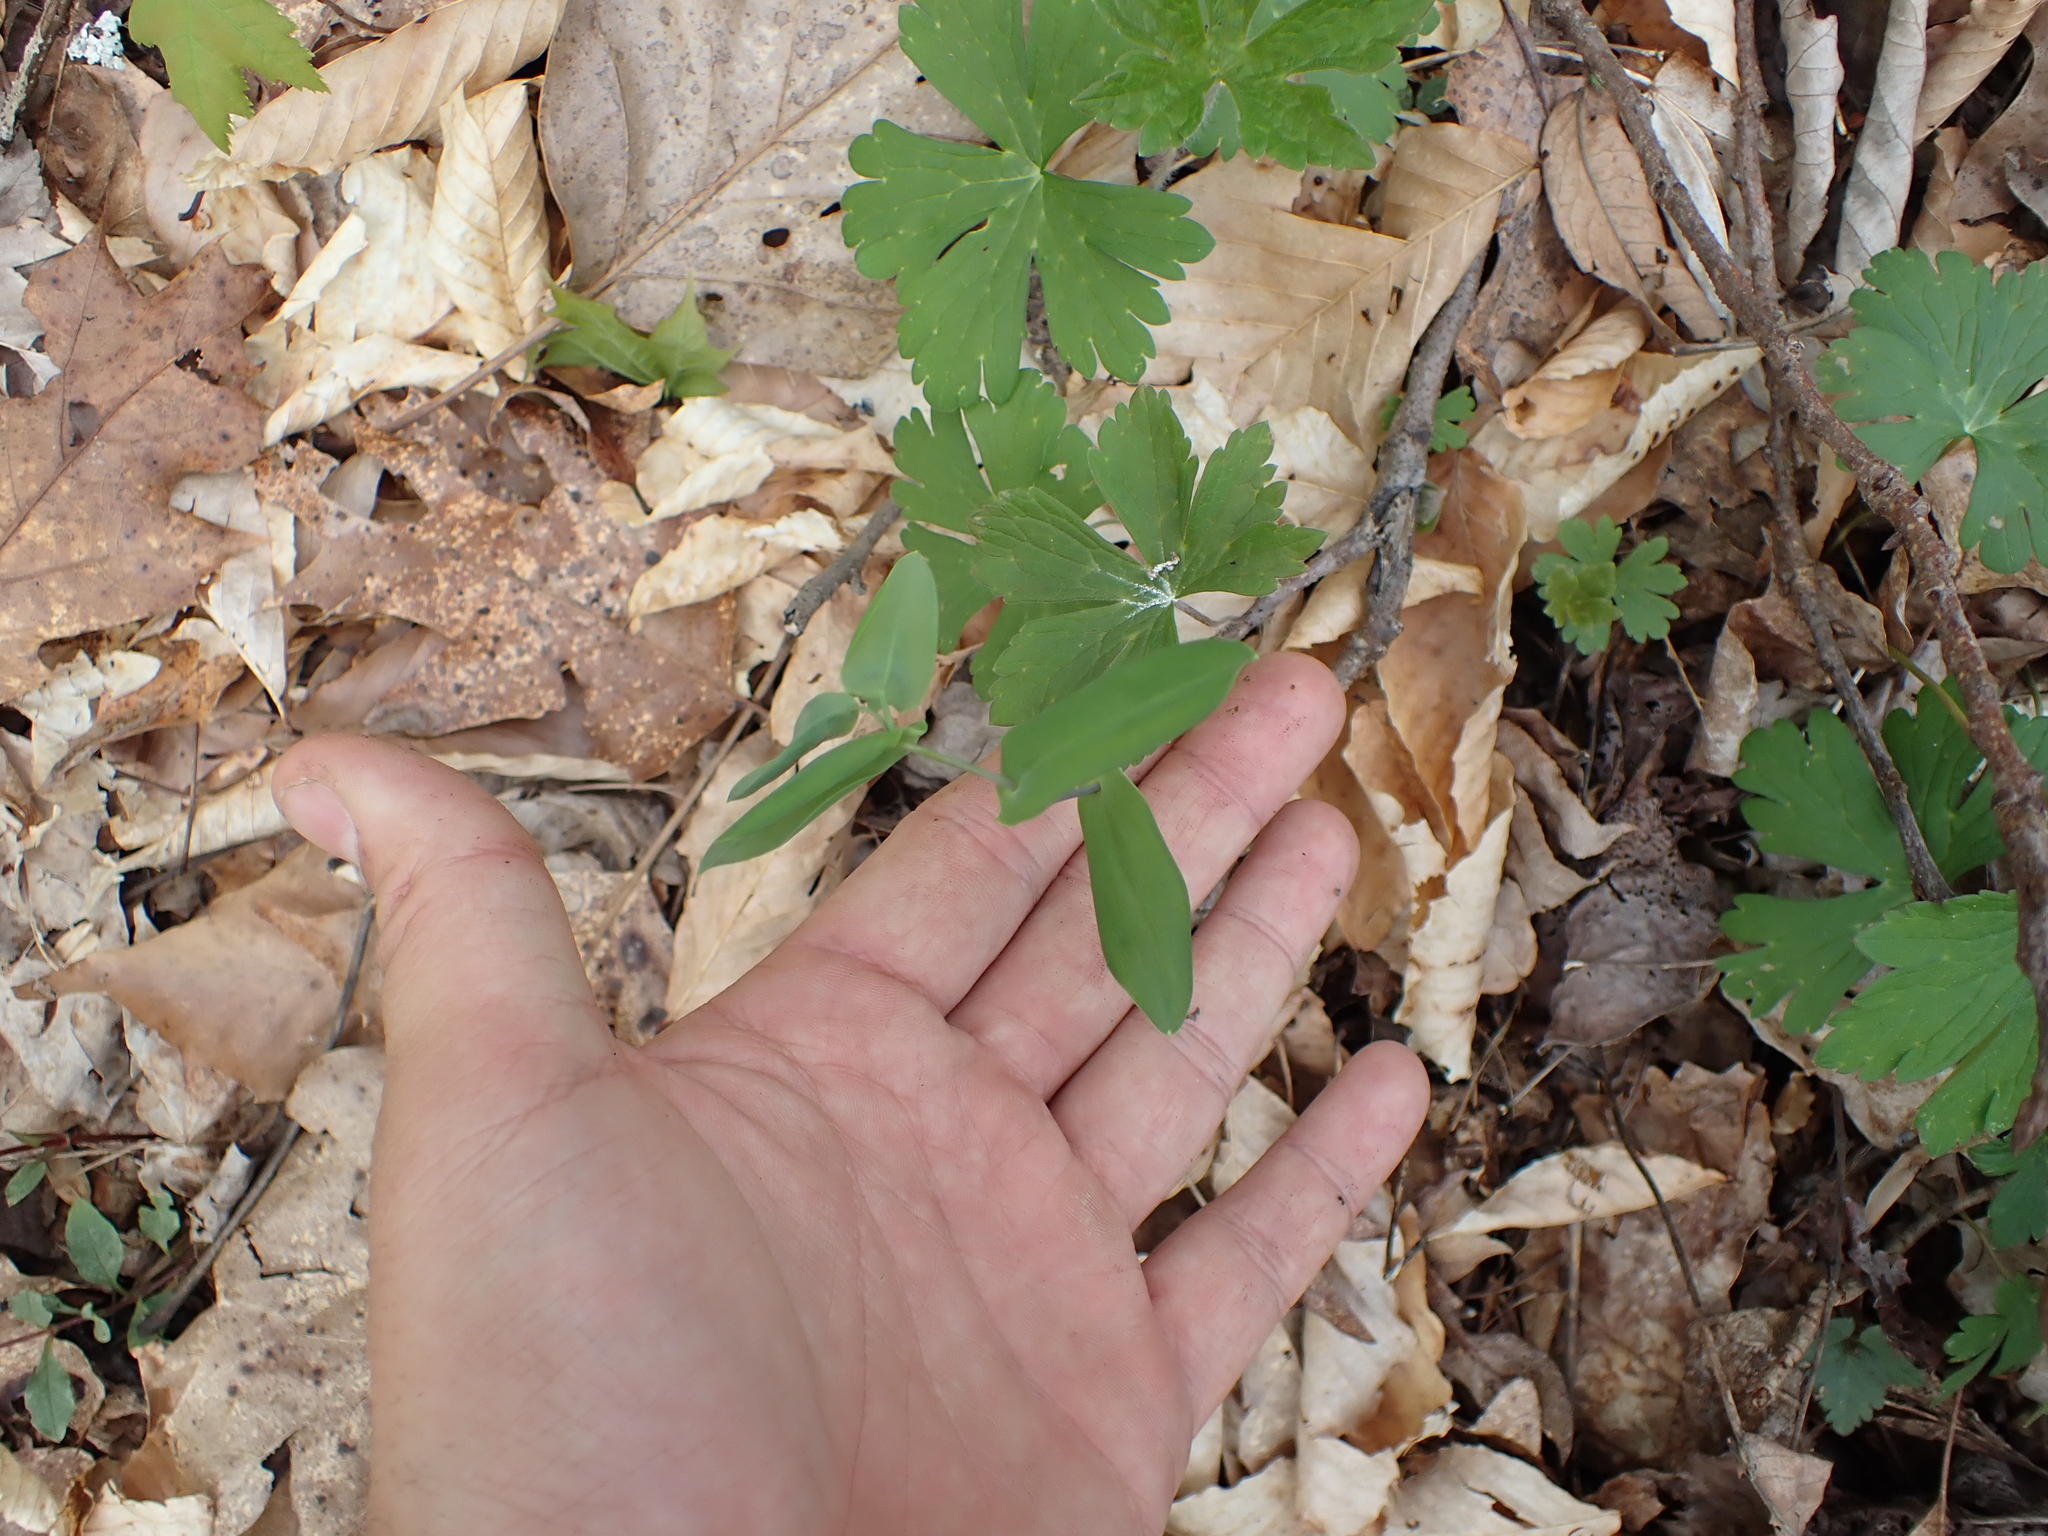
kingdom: Plantae
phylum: Tracheophyta
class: Liliopsida
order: Liliales
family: Colchicaceae
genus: Uvularia
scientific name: Uvularia perfoliata
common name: Perfoliate bellwort
